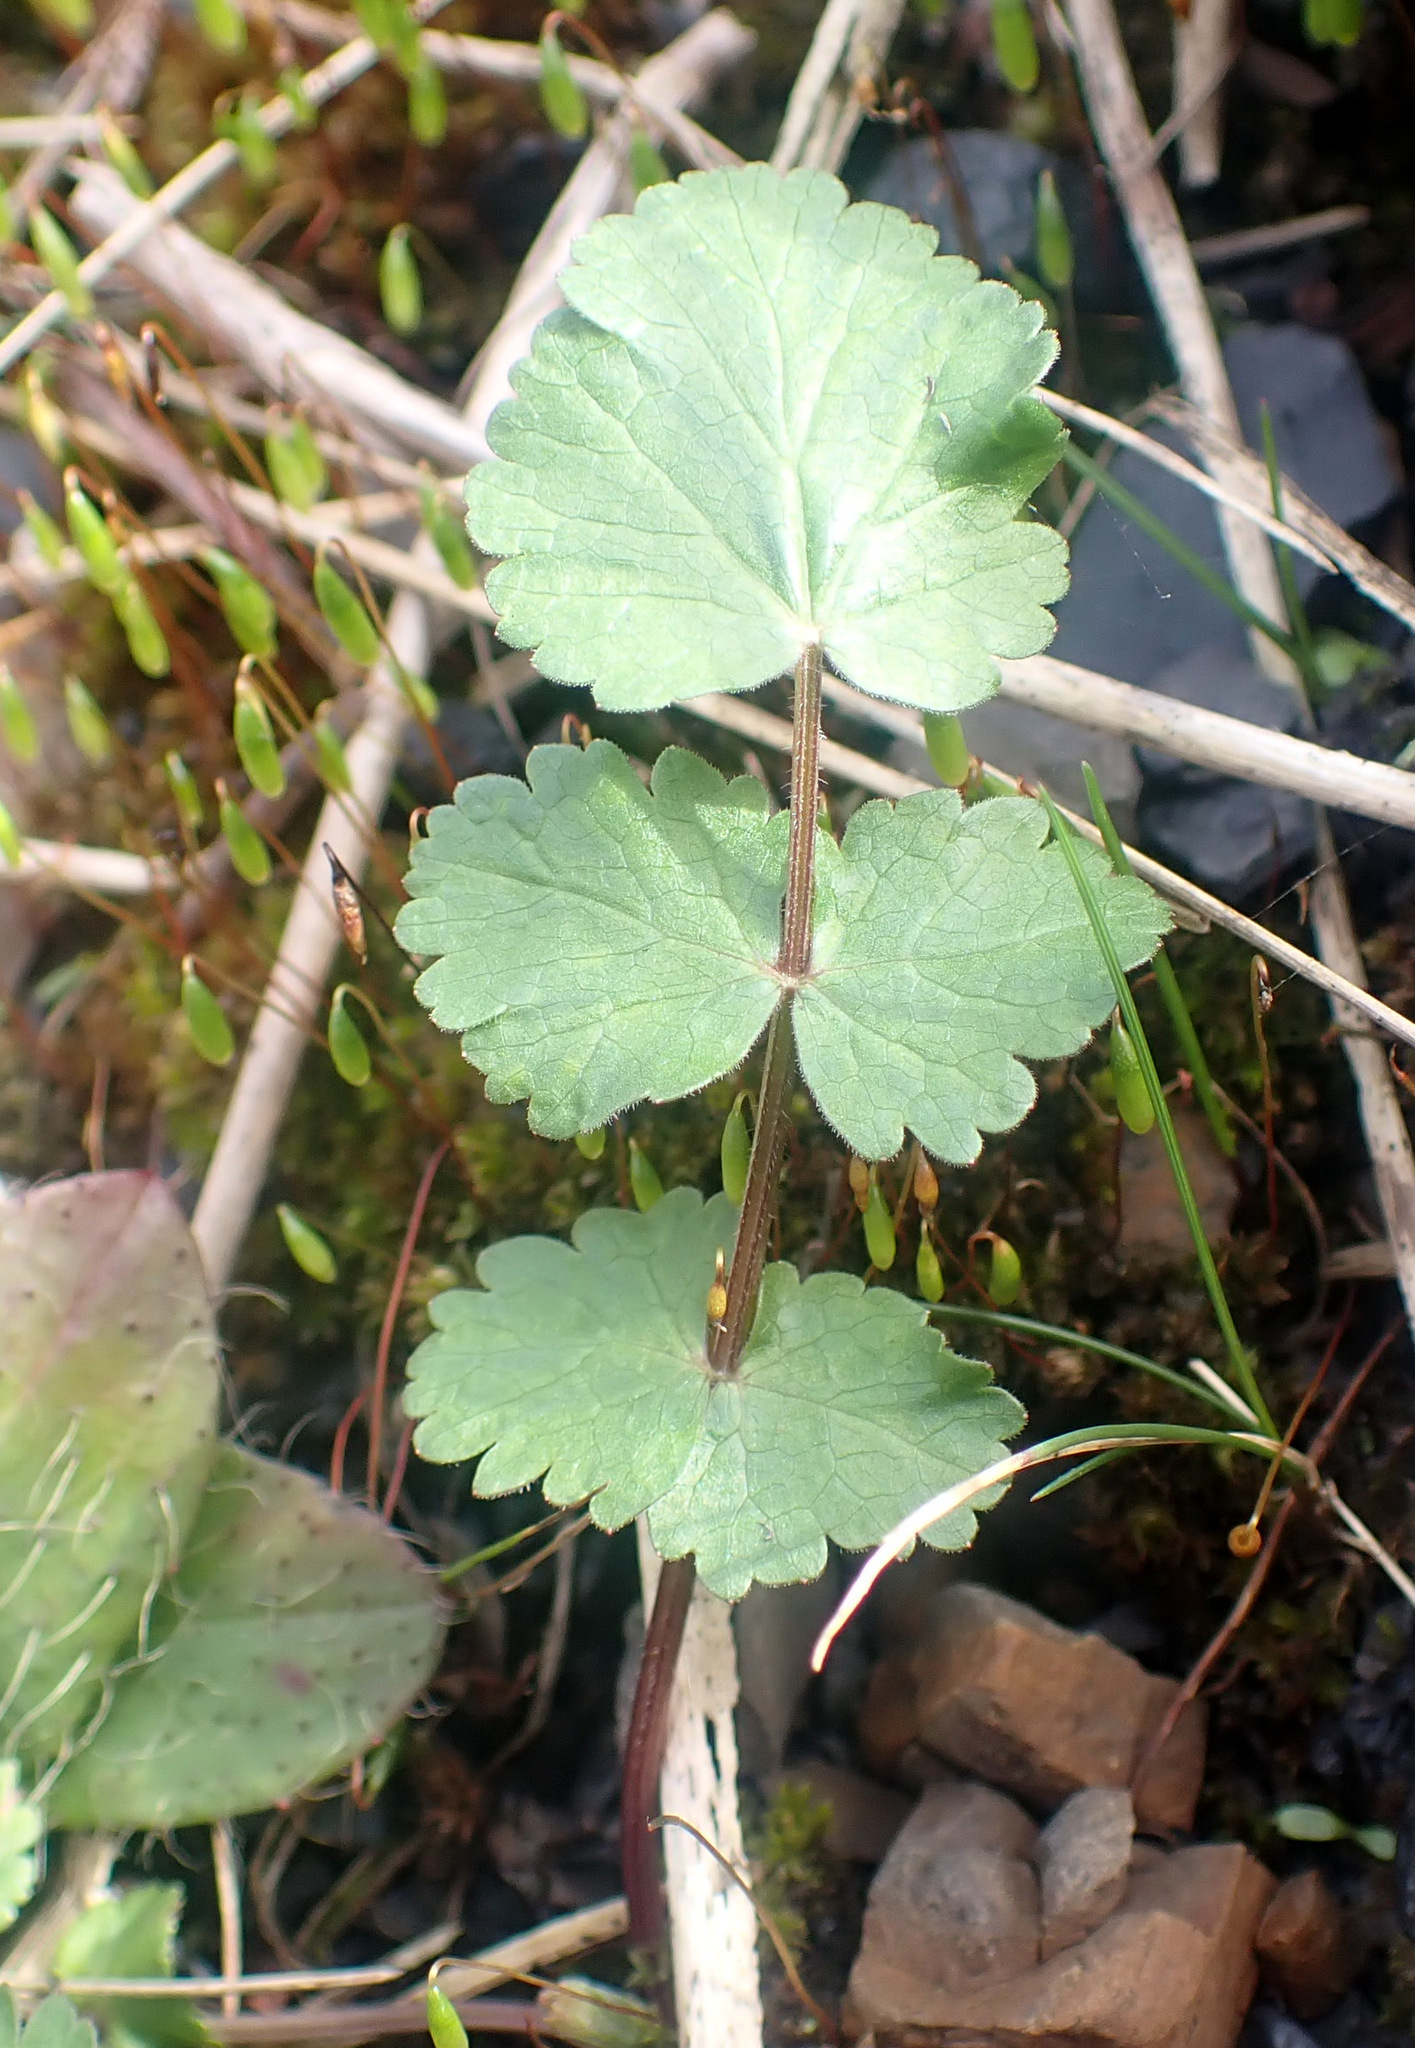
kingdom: Plantae
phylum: Tracheophyta
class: Magnoliopsida
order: Apiales
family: Apiaceae
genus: Pastinaca
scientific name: Pastinaca sativa
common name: Wild parsnip
